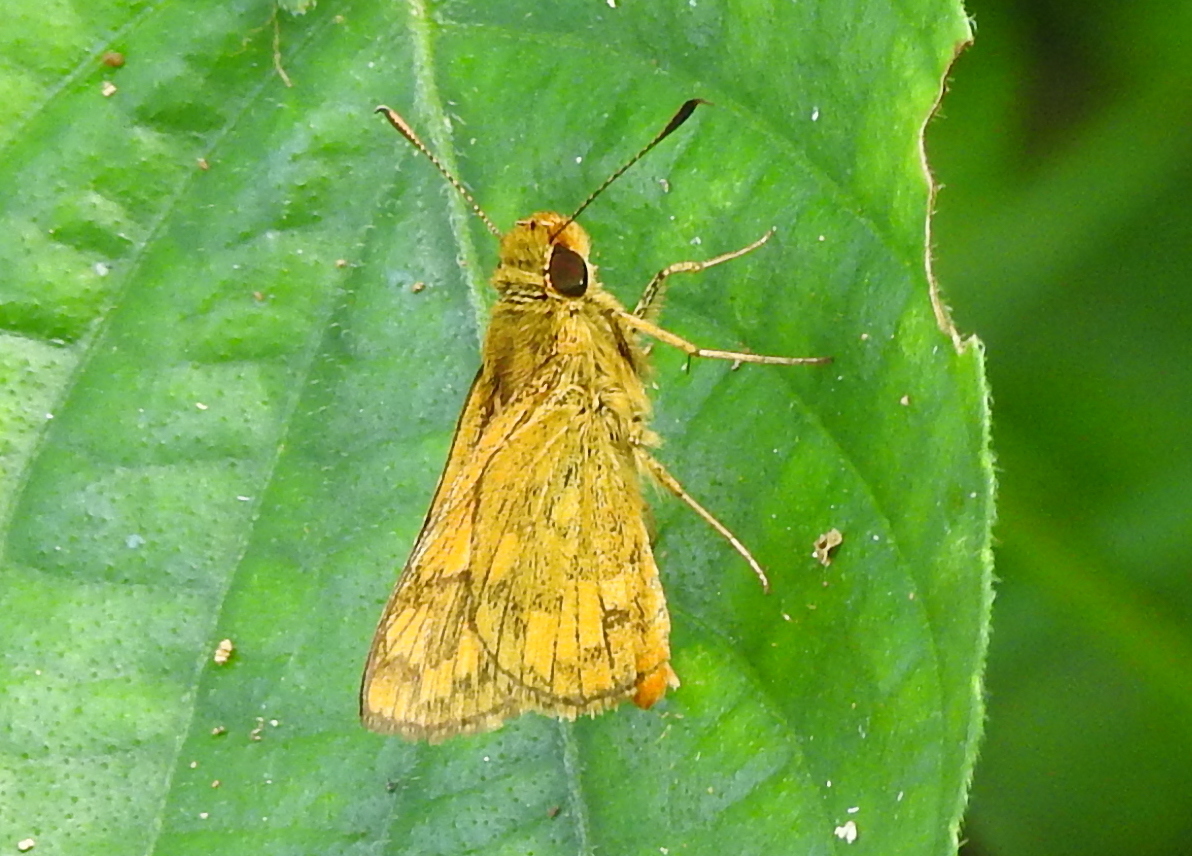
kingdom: Animalia
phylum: Arthropoda
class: Insecta
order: Lepidoptera
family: Hesperiidae
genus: Potanthus
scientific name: Potanthus omaha
